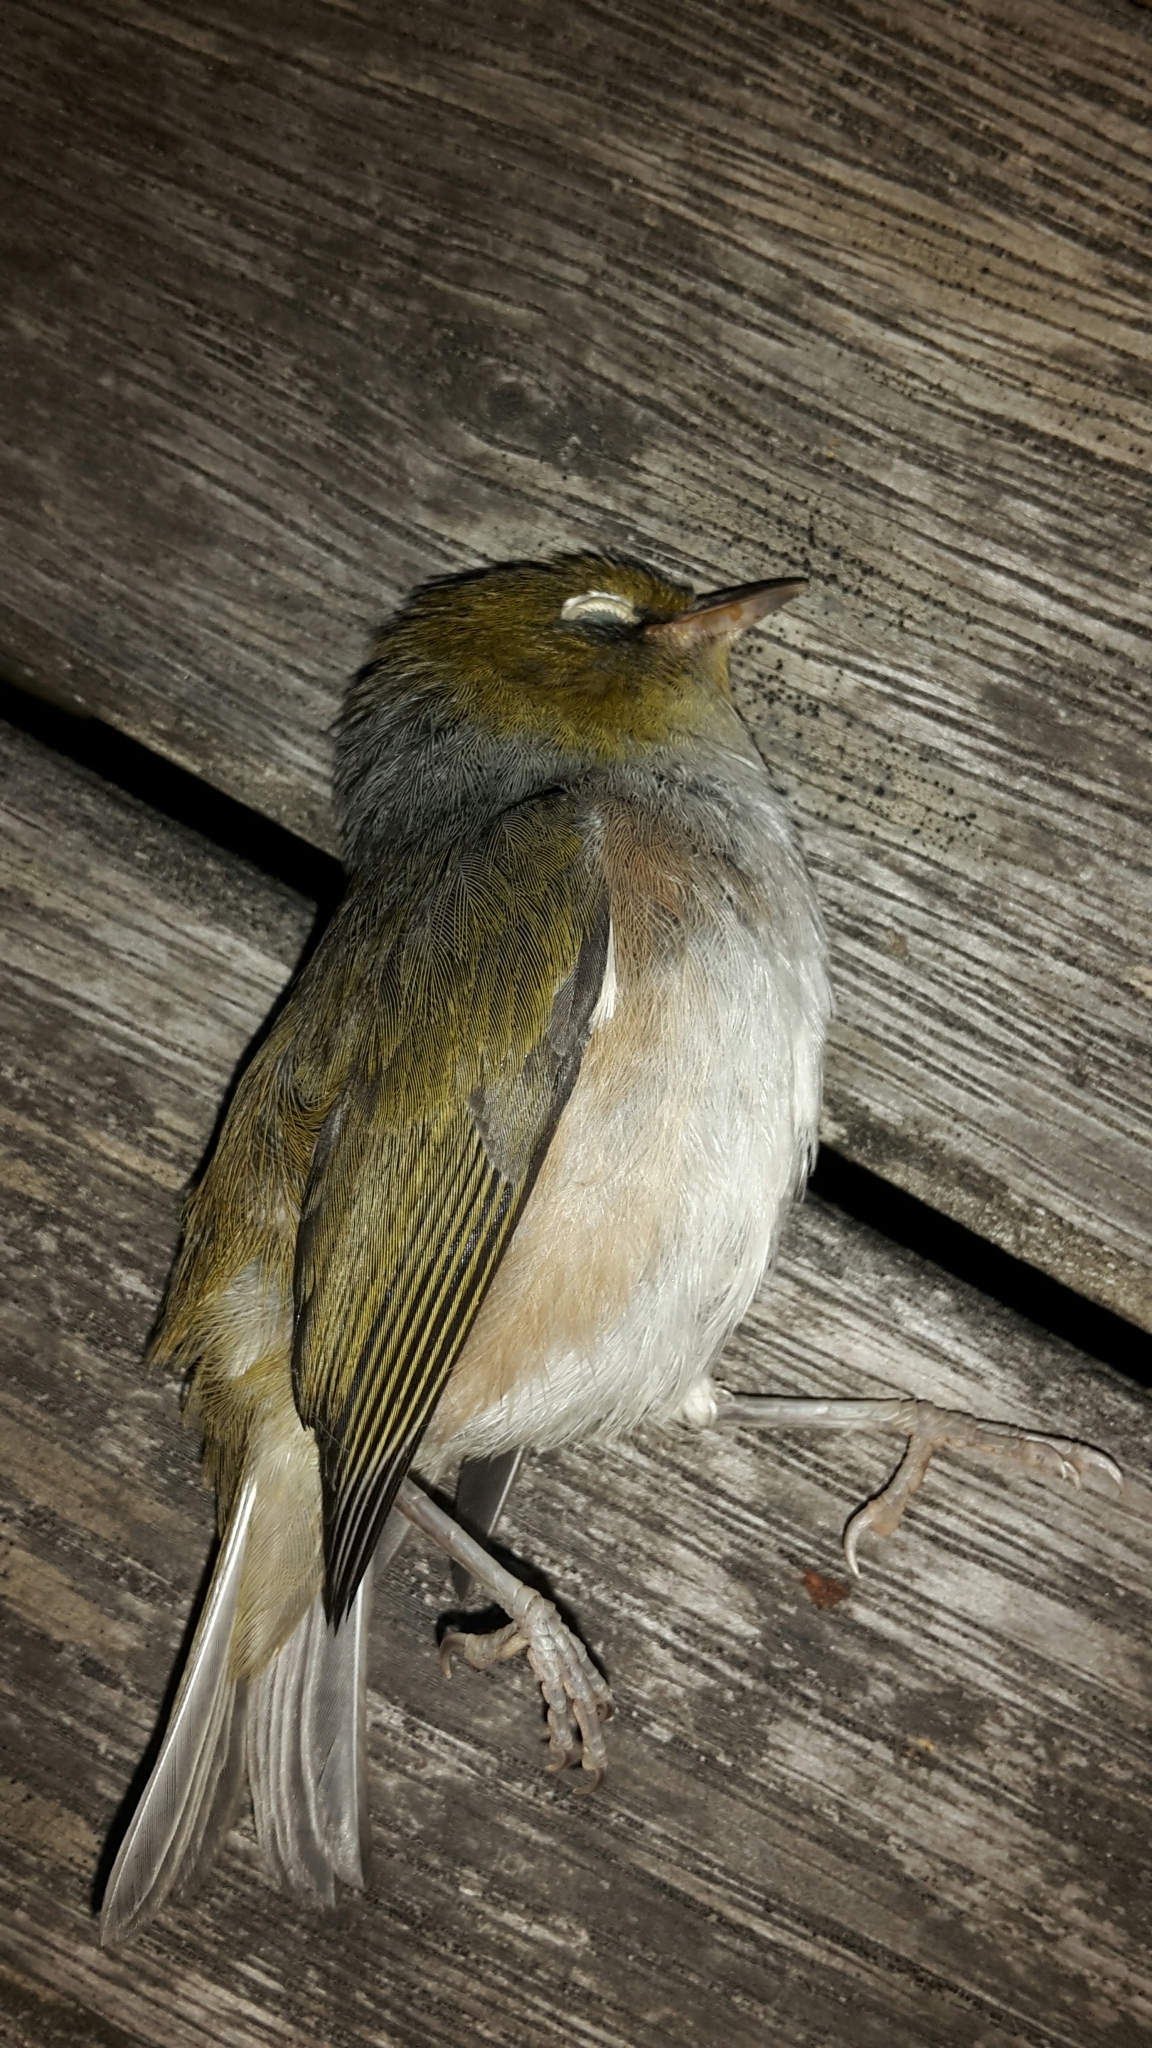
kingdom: Animalia
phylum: Chordata
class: Aves
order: Passeriformes
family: Zosteropidae
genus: Zosterops
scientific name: Zosterops lateralis
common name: Silvereye
